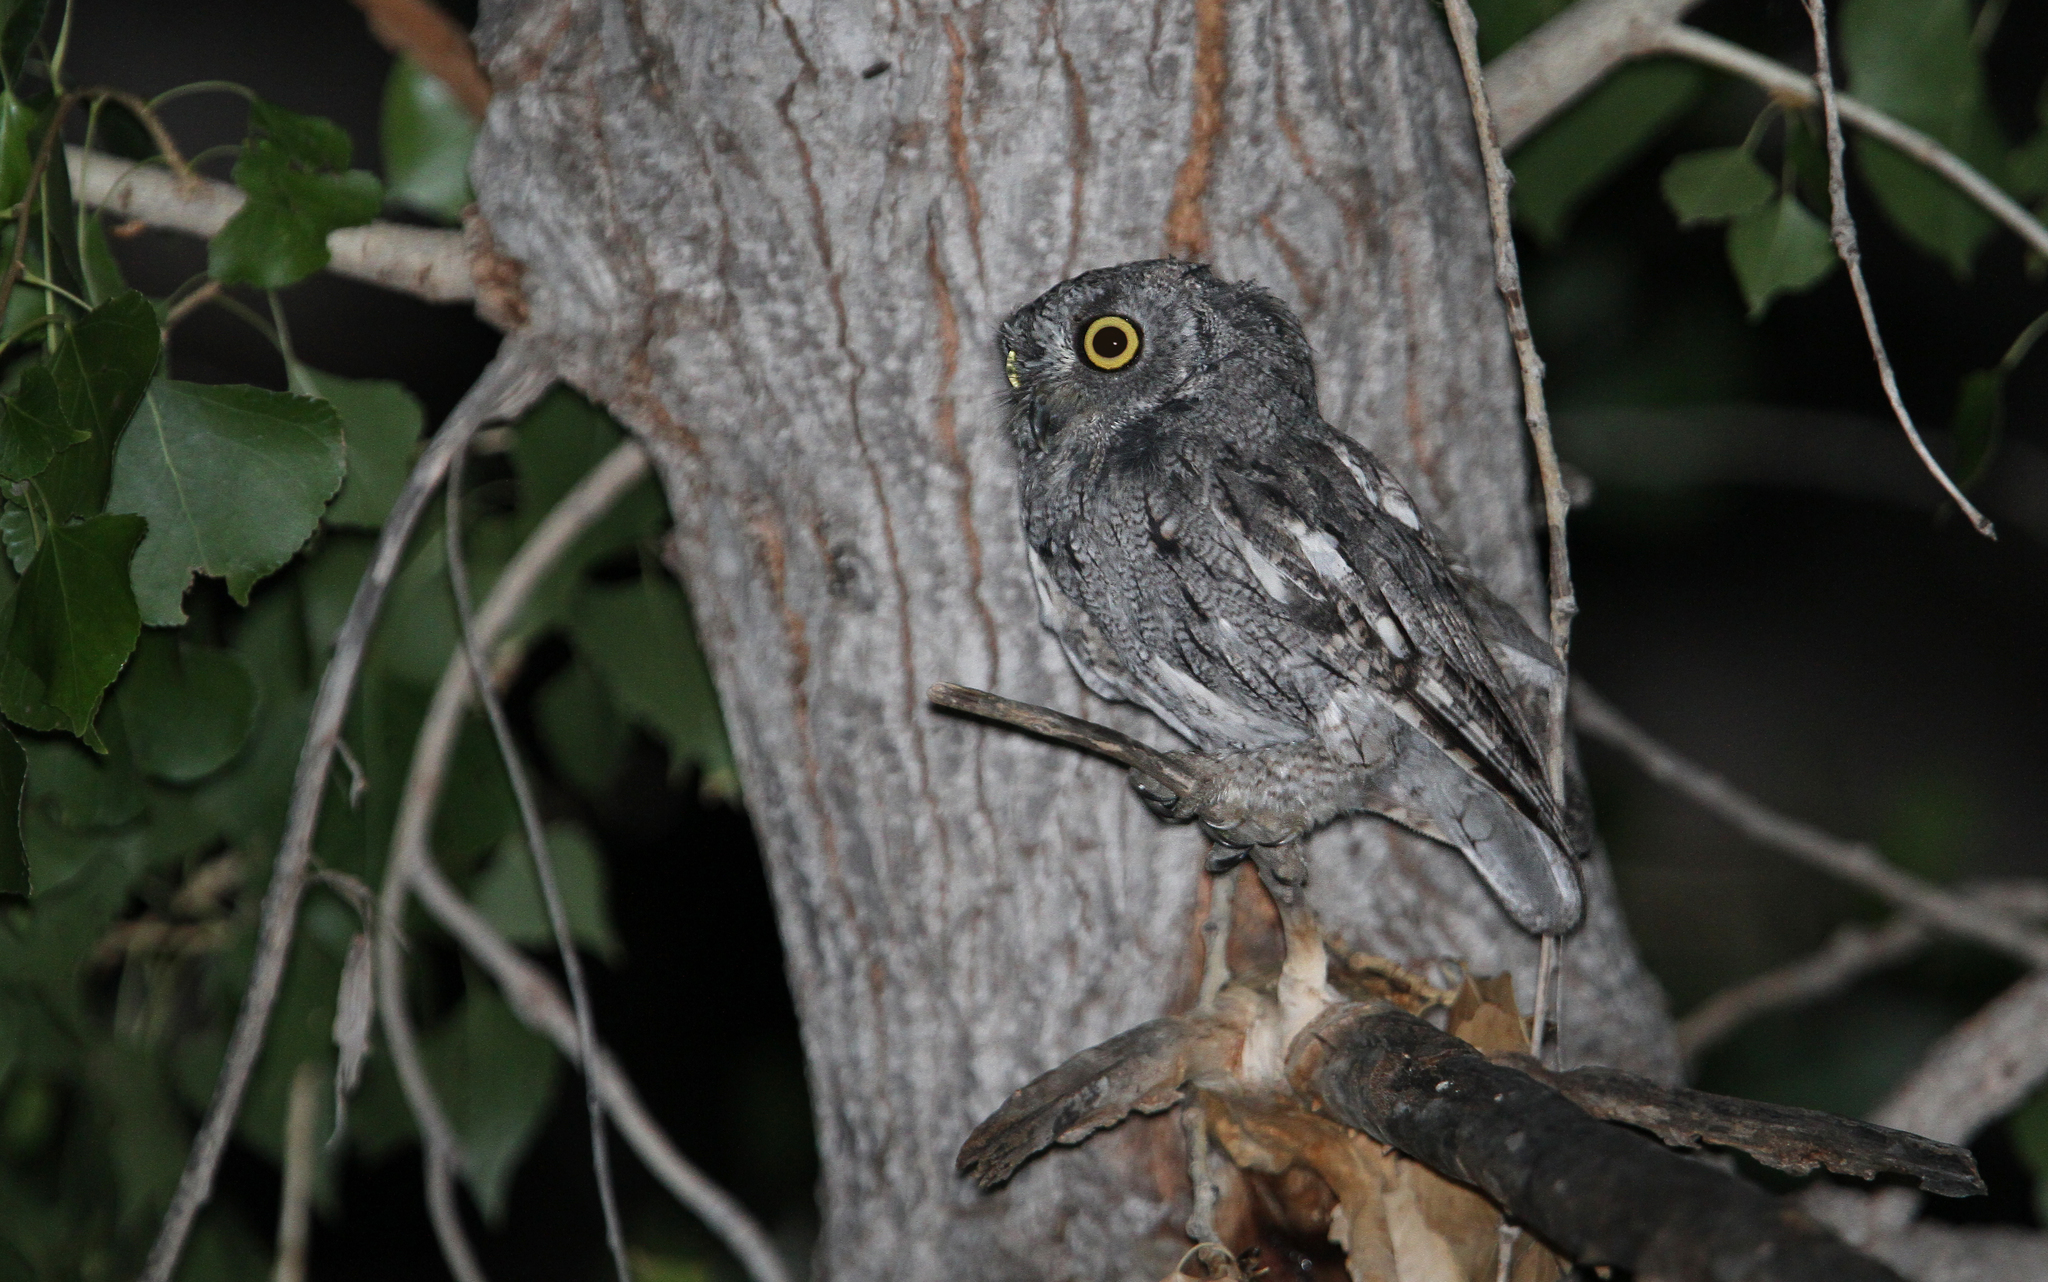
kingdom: Animalia
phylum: Chordata
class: Aves
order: Strigiformes
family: Strigidae
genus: Megascops
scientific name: Megascops kennicottii
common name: Western screech-owl
